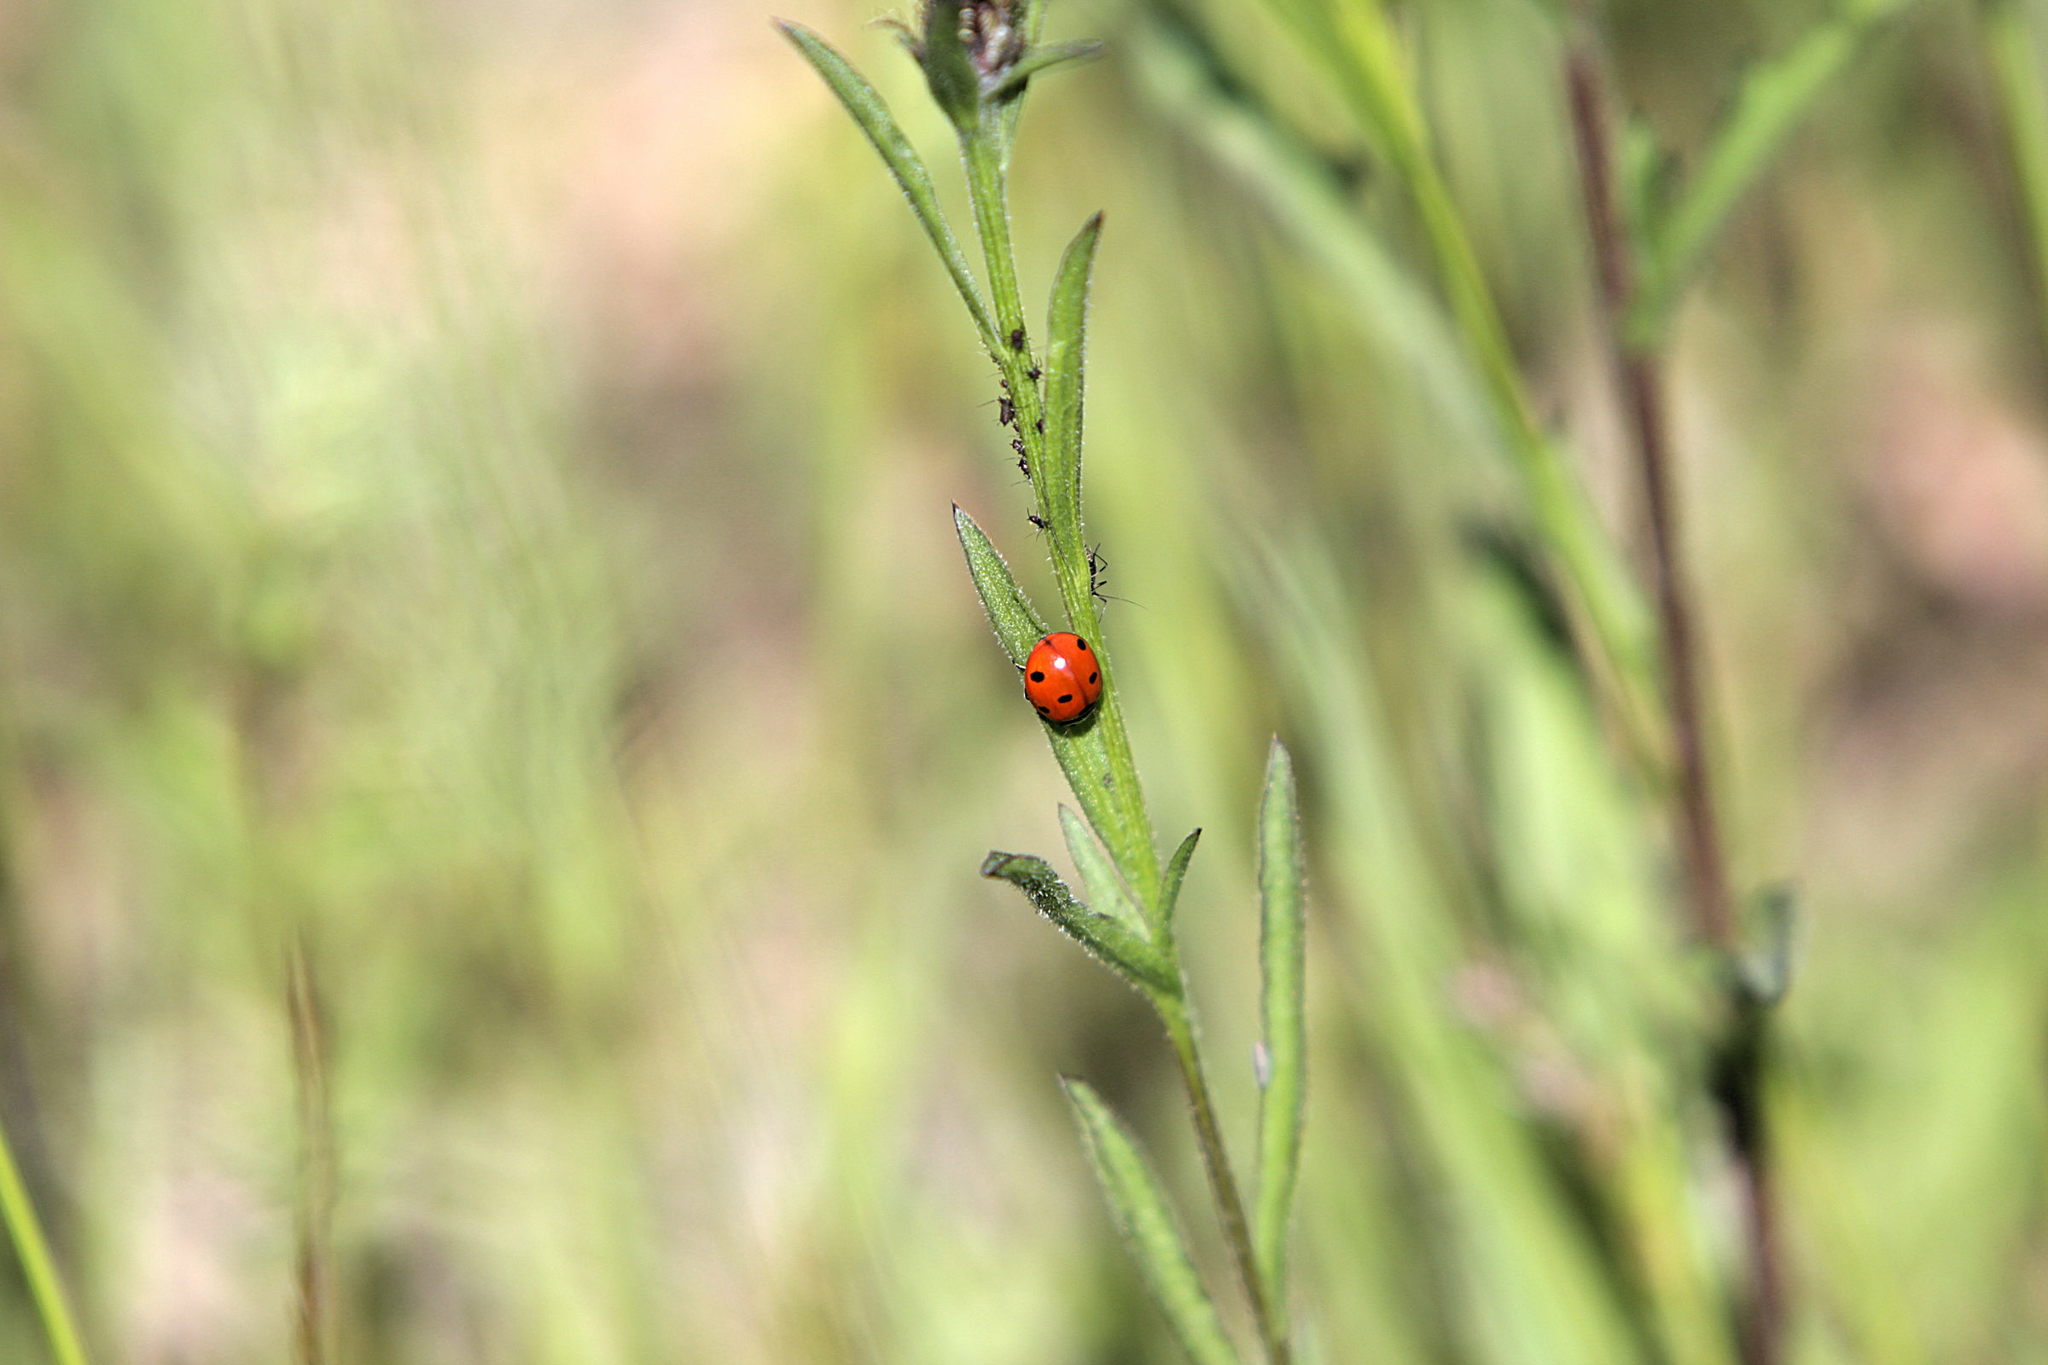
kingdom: Animalia
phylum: Arthropoda
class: Insecta
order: Coleoptera
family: Coccinellidae
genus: Coccinella
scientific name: Coccinella septempunctata
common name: Sevenspotted lady beetle
